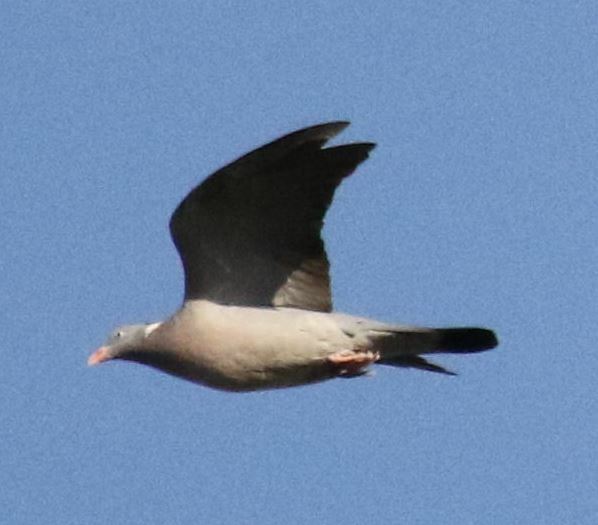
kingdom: Animalia
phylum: Chordata
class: Aves
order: Columbiformes
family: Columbidae
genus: Columba
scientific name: Columba palumbus
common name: Common wood pigeon
